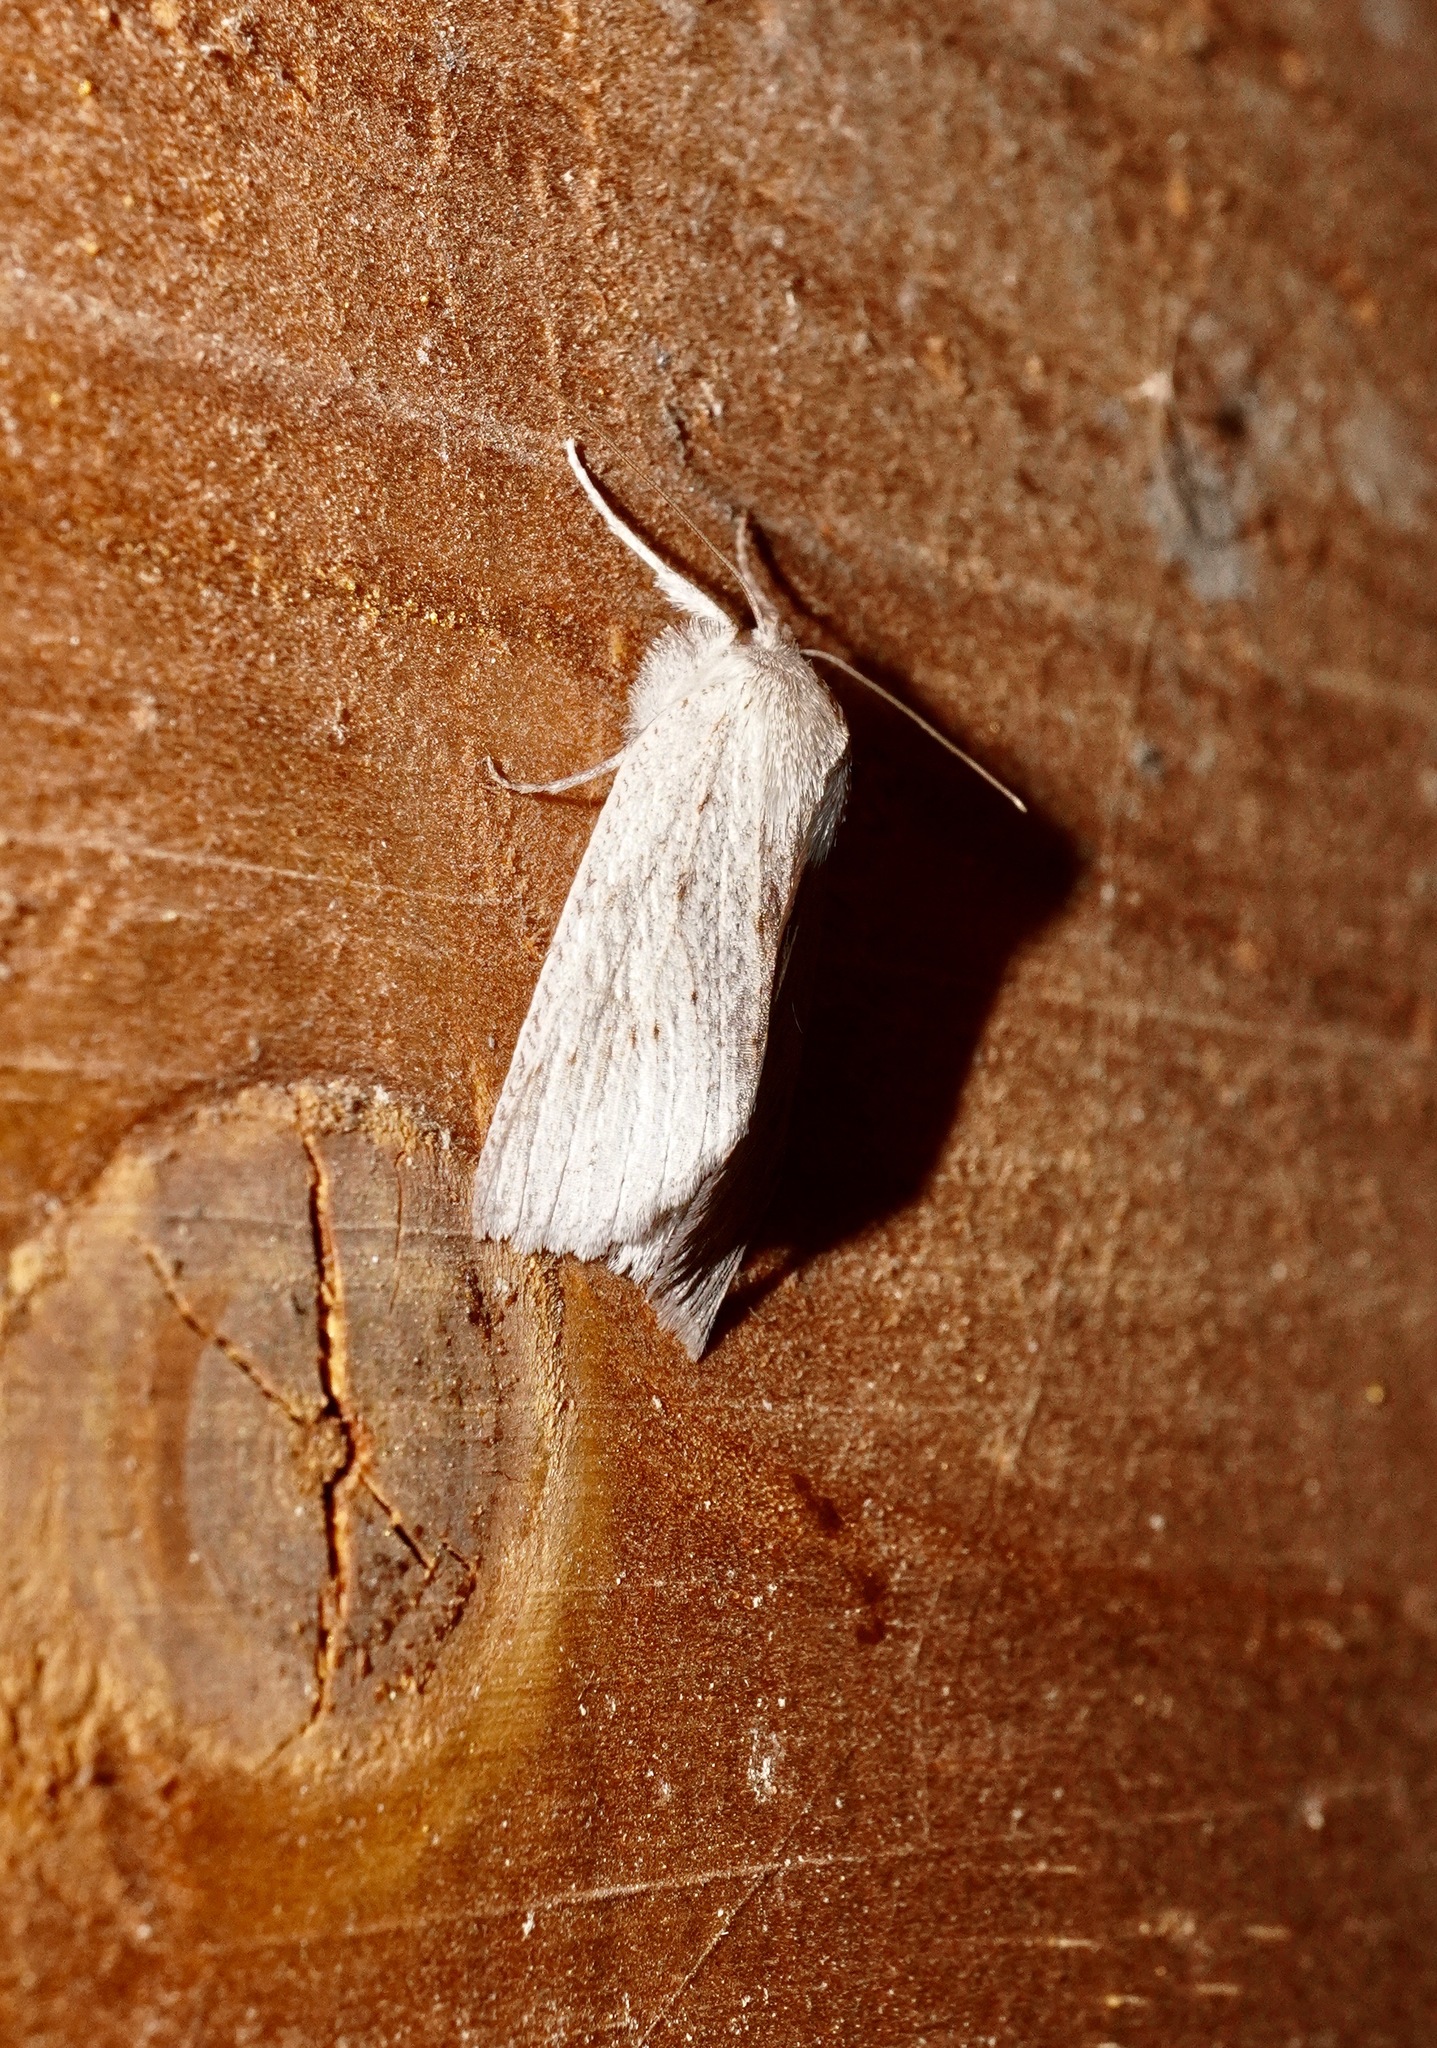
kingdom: Animalia
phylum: Arthropoda
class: Insecta
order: Lepidoptera
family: Geometridae
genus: Declana
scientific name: Declana leptomera
